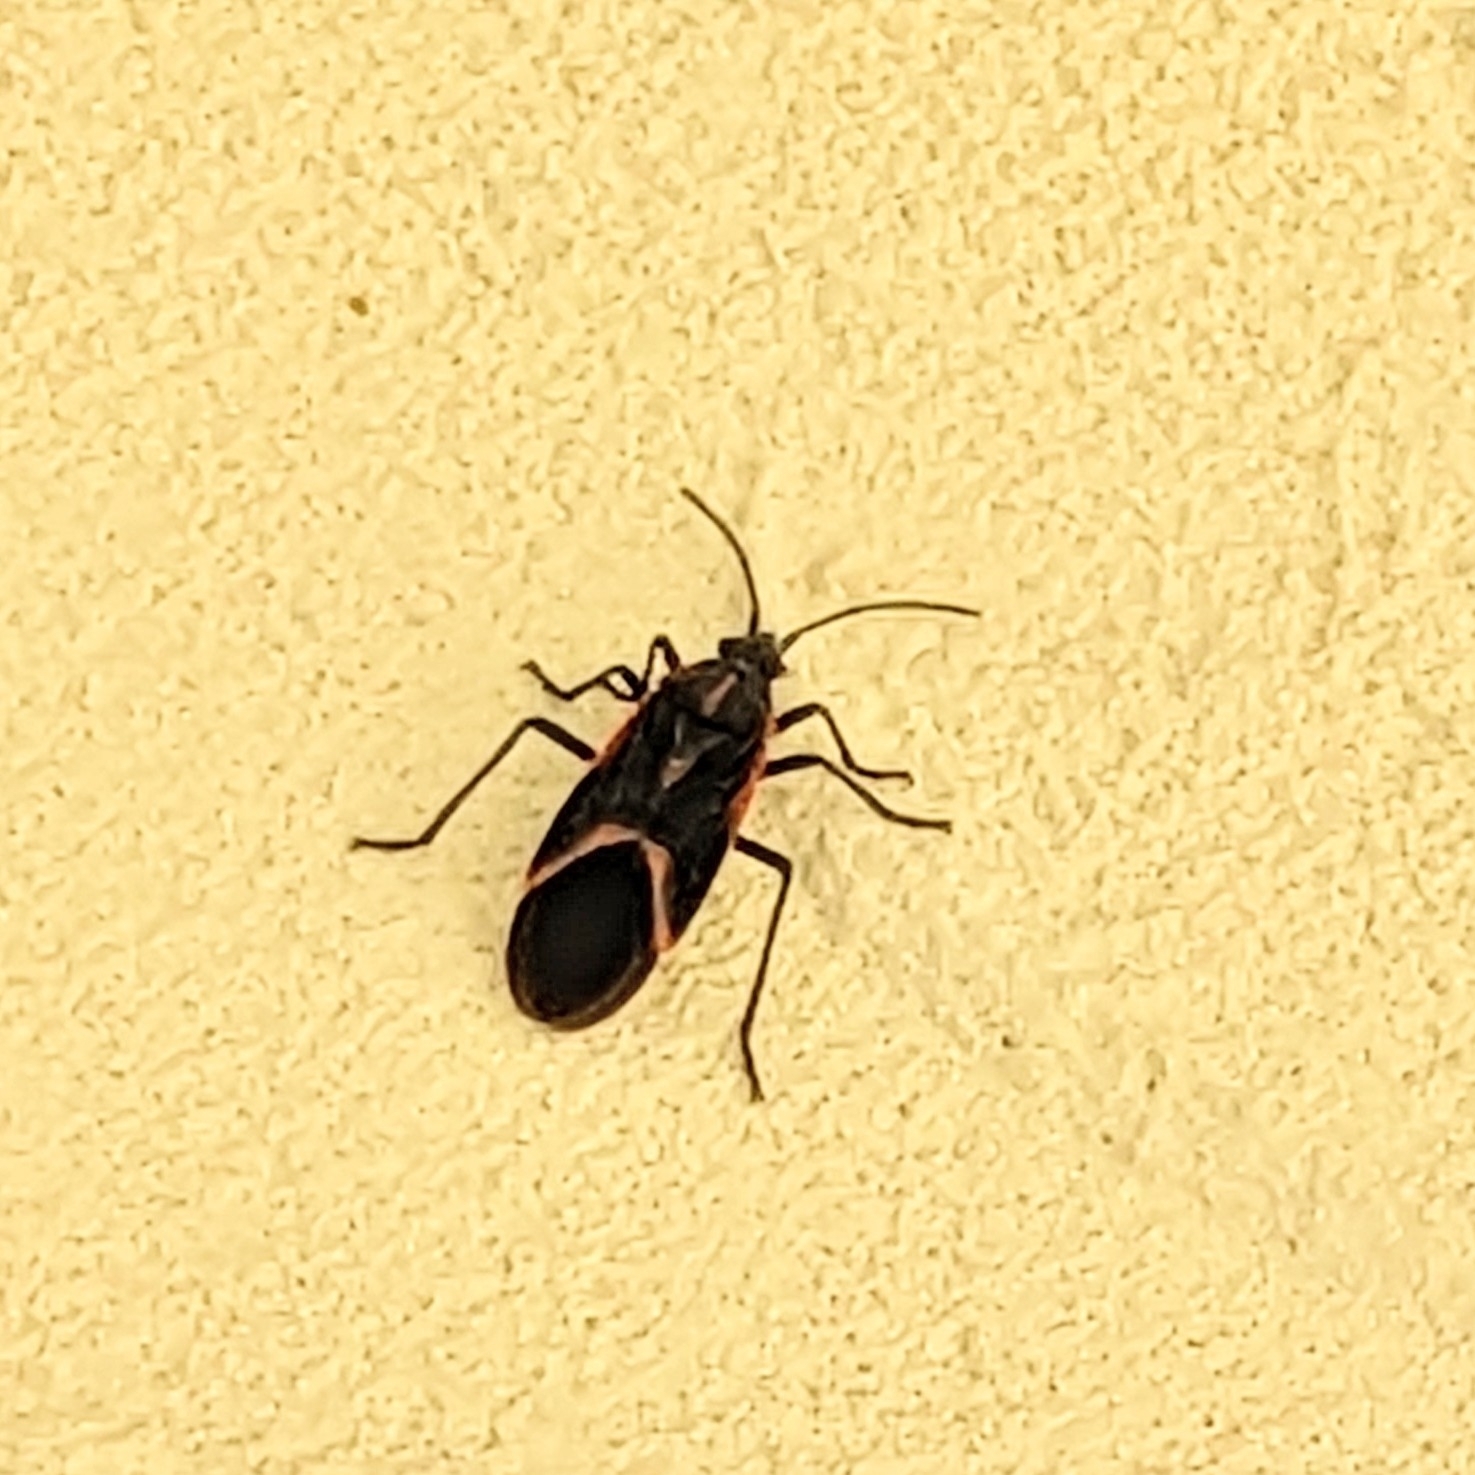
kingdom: Animalia
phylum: Arthropoda
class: Insecta
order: Hemiptera
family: Rhopalidae
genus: Boisea
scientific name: Boisea trivittata
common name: Boxelder bug
